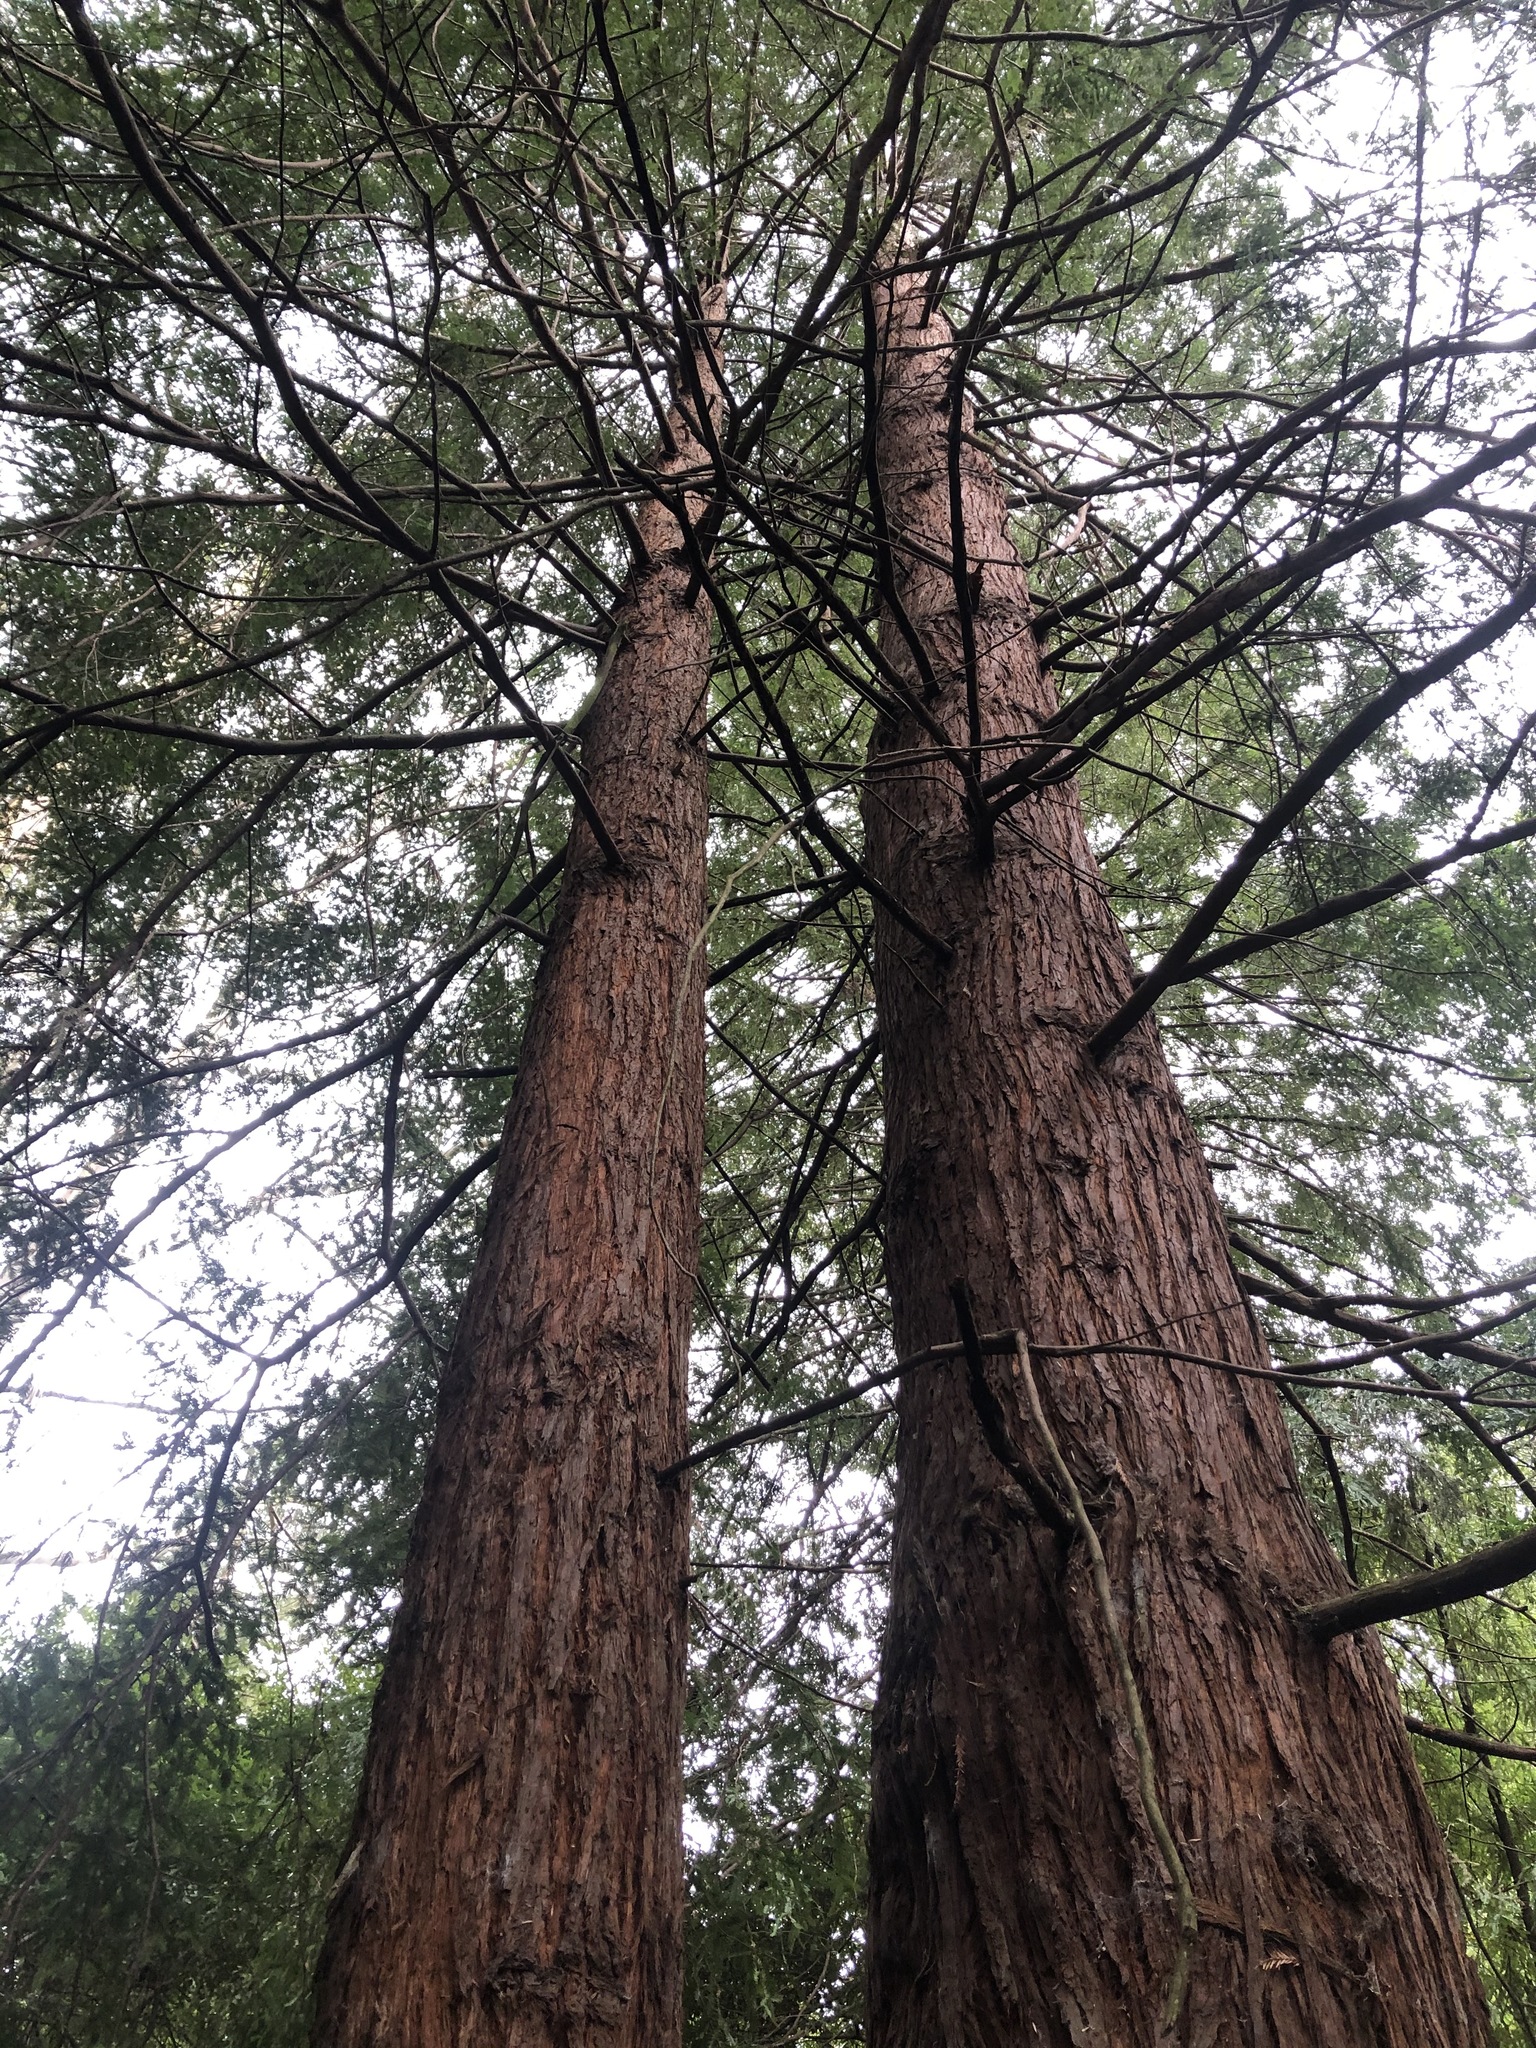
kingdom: Plantae
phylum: Tracheophyta
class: Pinopsida
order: Pinales
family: Cupressaceae
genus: Sequoia
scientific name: Sequoia sempervirens
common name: Coast redwood
